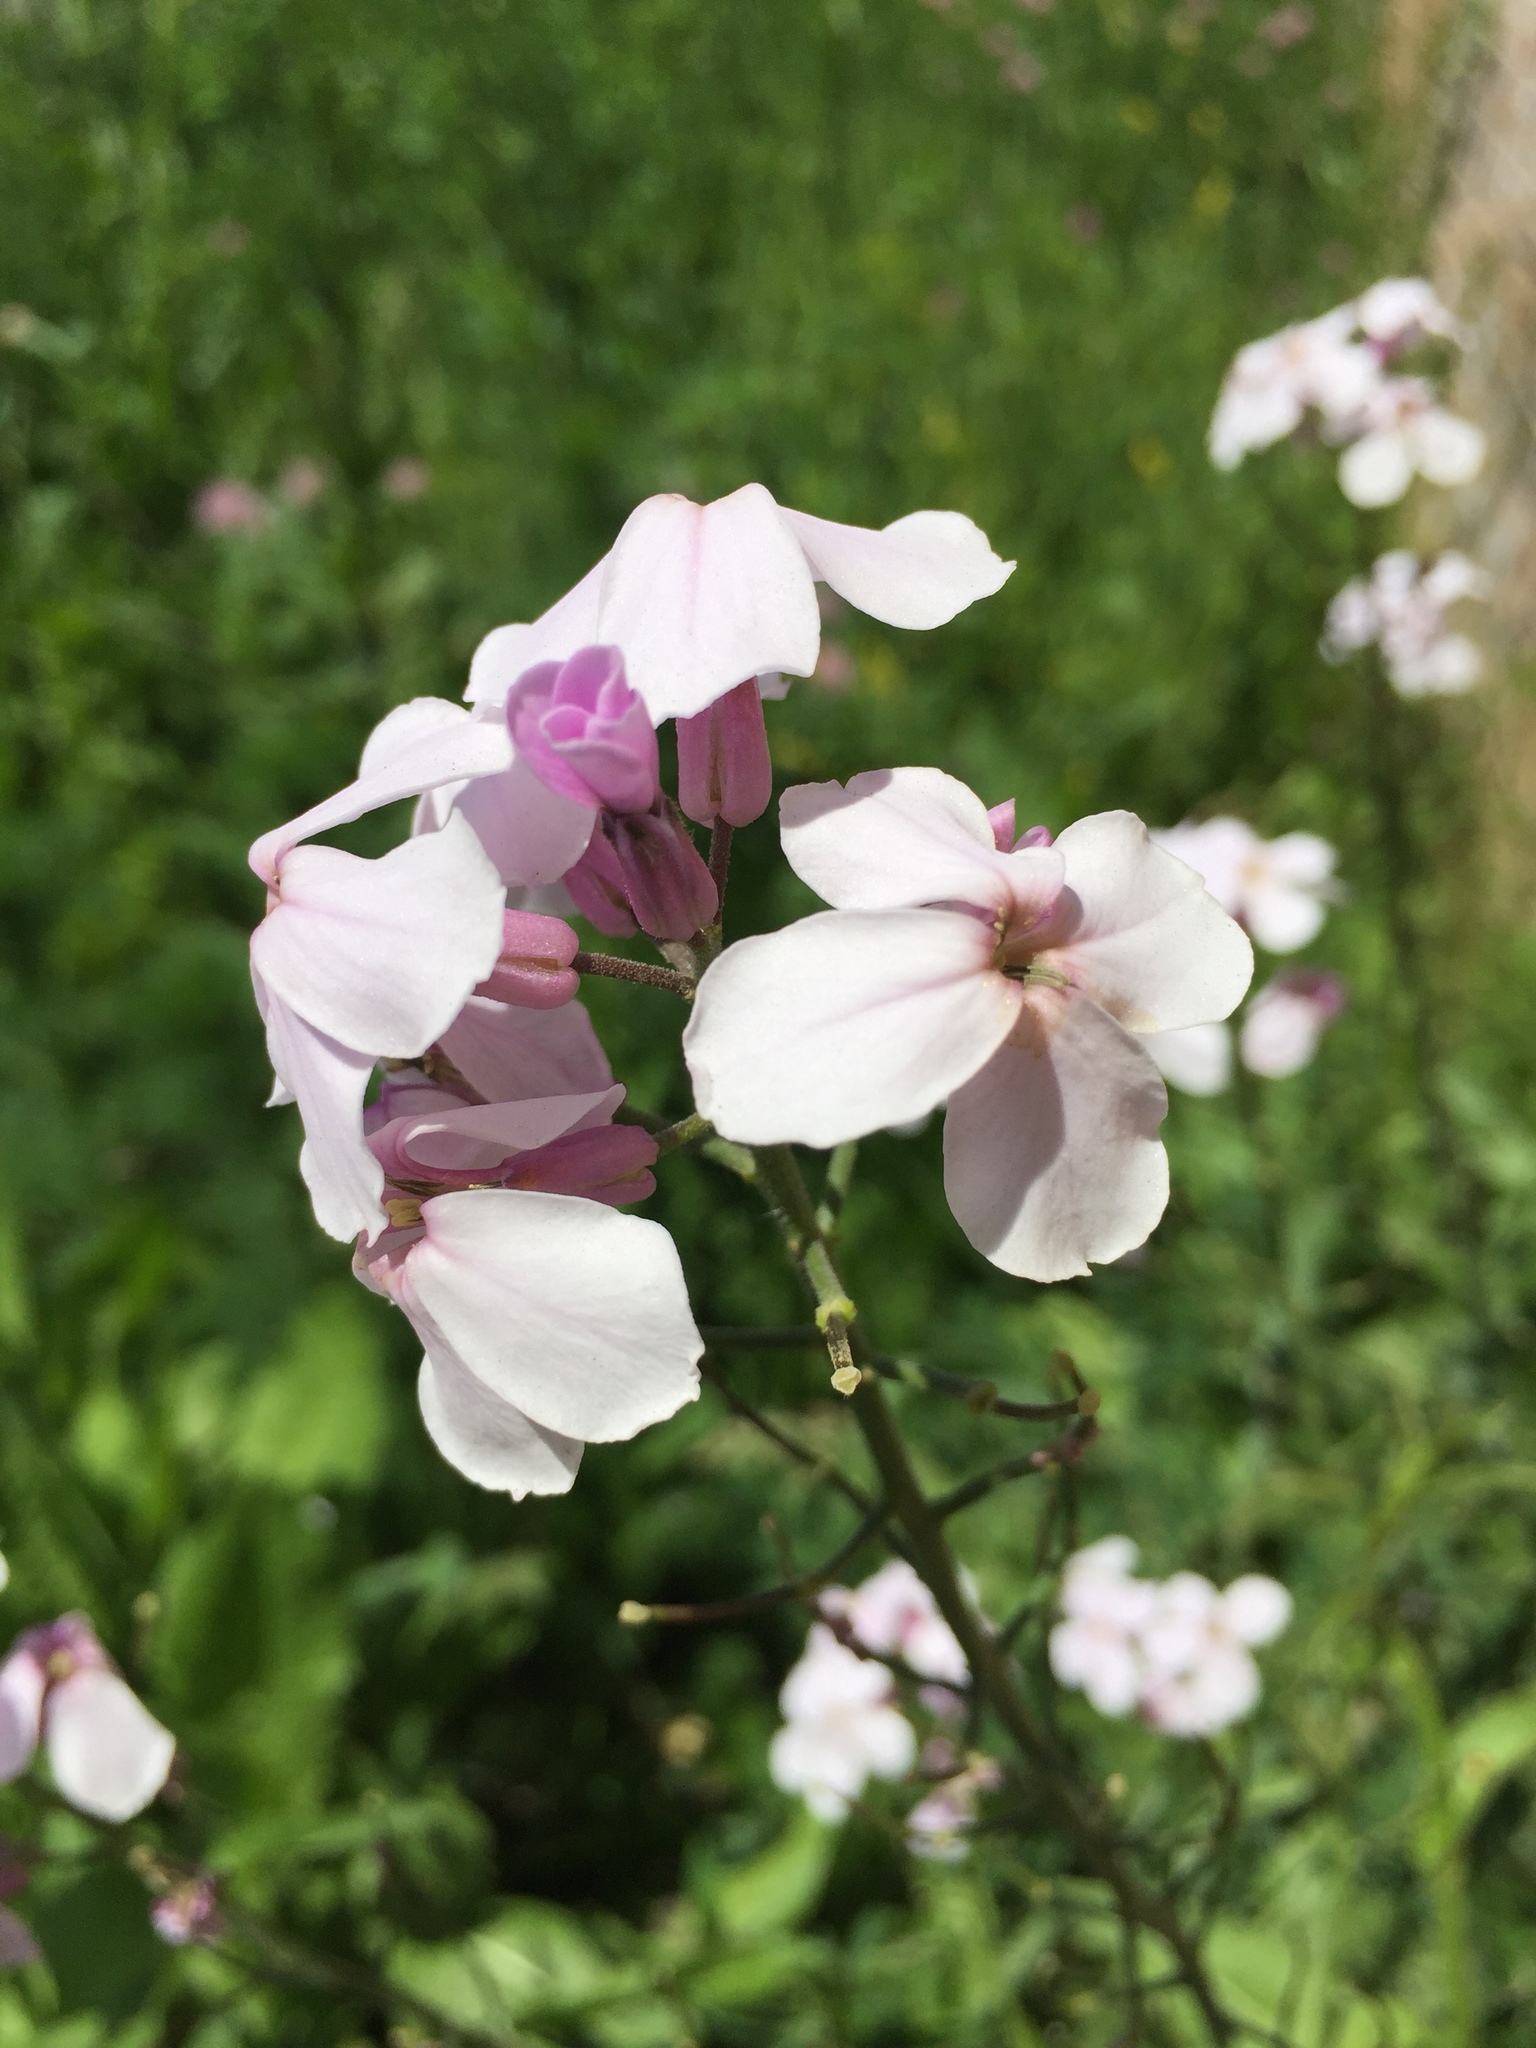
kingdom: Plantae
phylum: Tracheophyta
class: Magnoliopsida
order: Brassicales
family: Brassicaceae
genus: Hesperis
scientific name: Hesperis matronalis
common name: Dame's-violet
